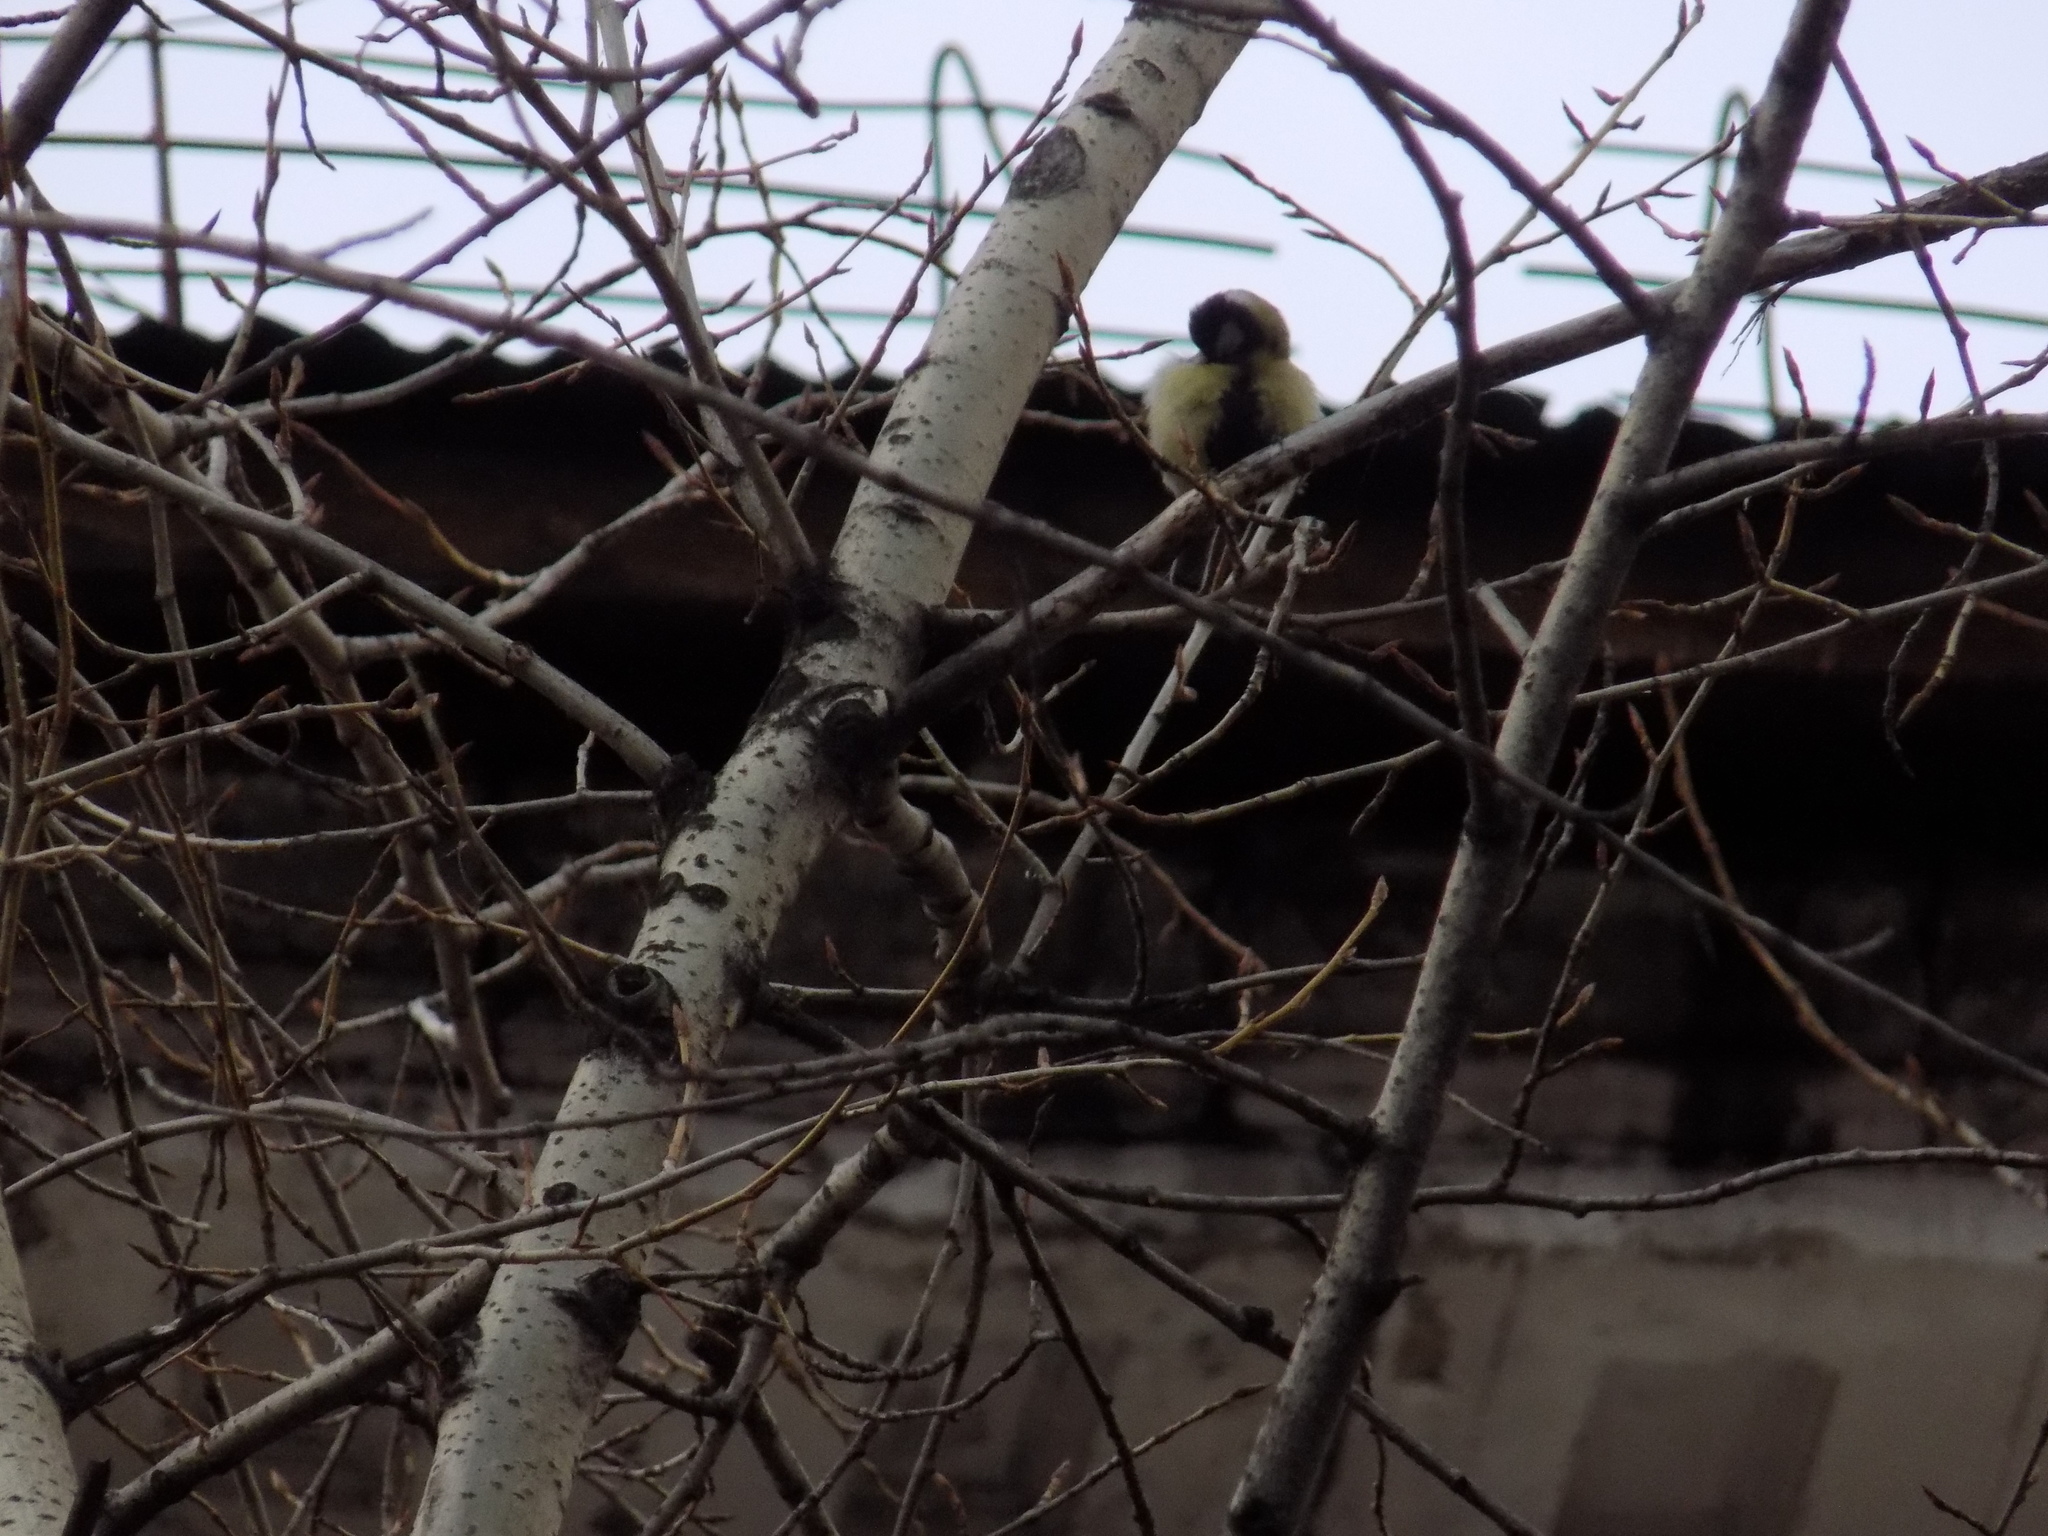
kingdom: Animalia
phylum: Chordata
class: Aves
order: Passeriformes
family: Paridae
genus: Parus
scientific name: Parus major
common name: Great tit
